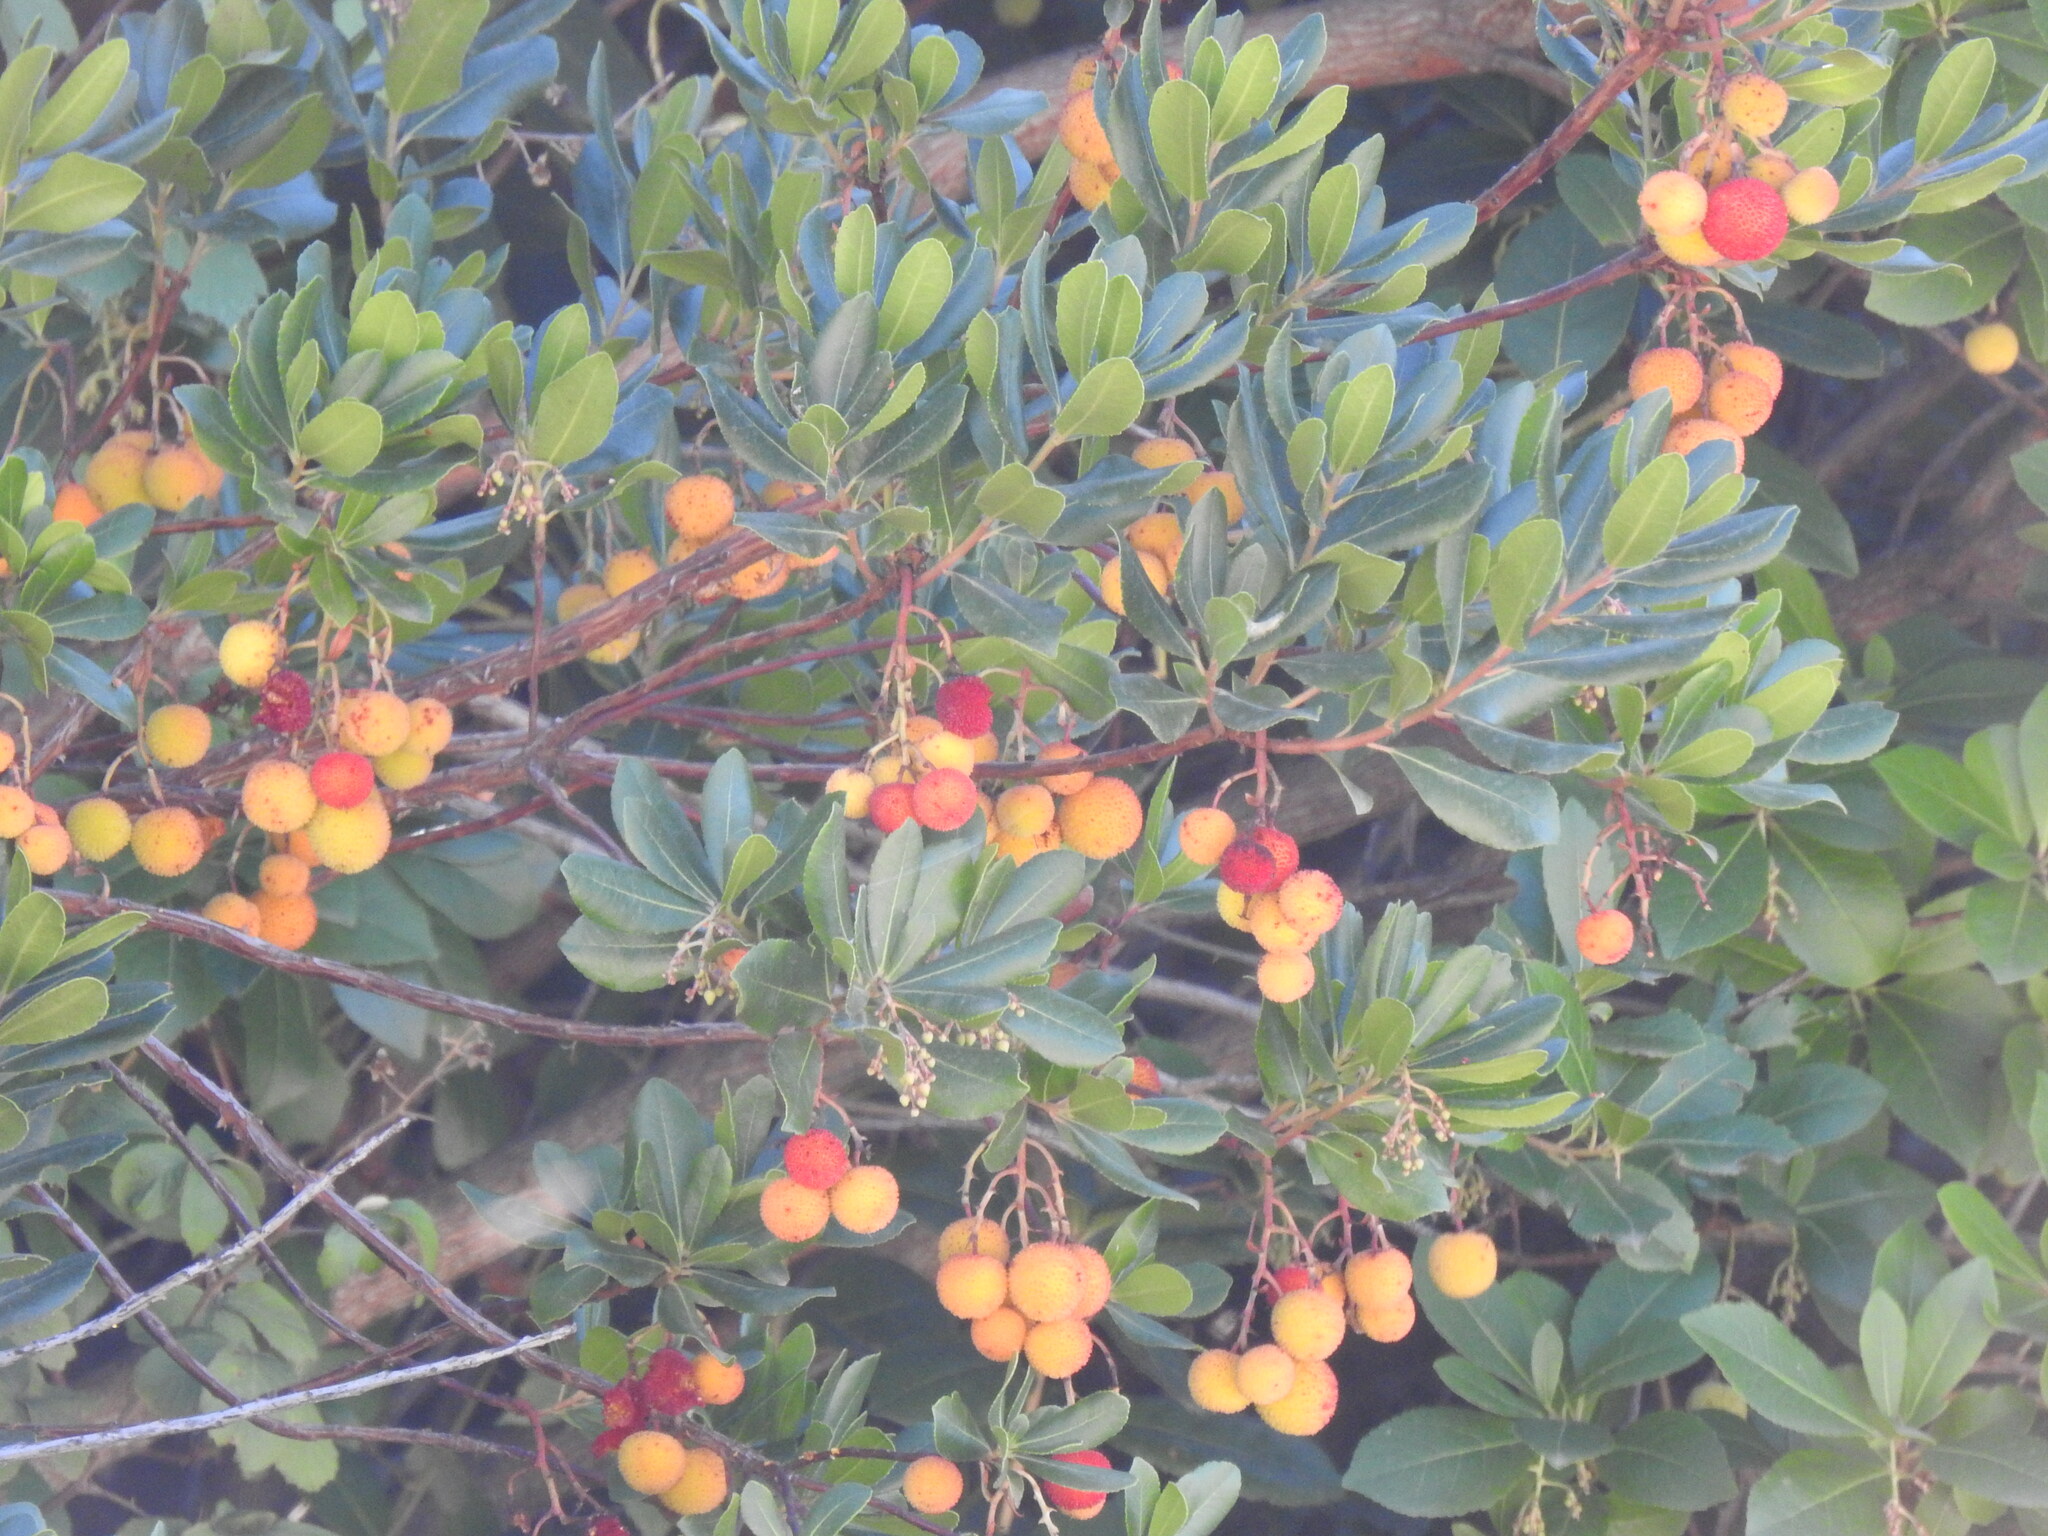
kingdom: Plantae
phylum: Tracheophyta
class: Magnoliopsida
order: Ericales
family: Ericaceae
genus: Arbutus
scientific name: Arbutus unedo
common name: Strawberry-tree
